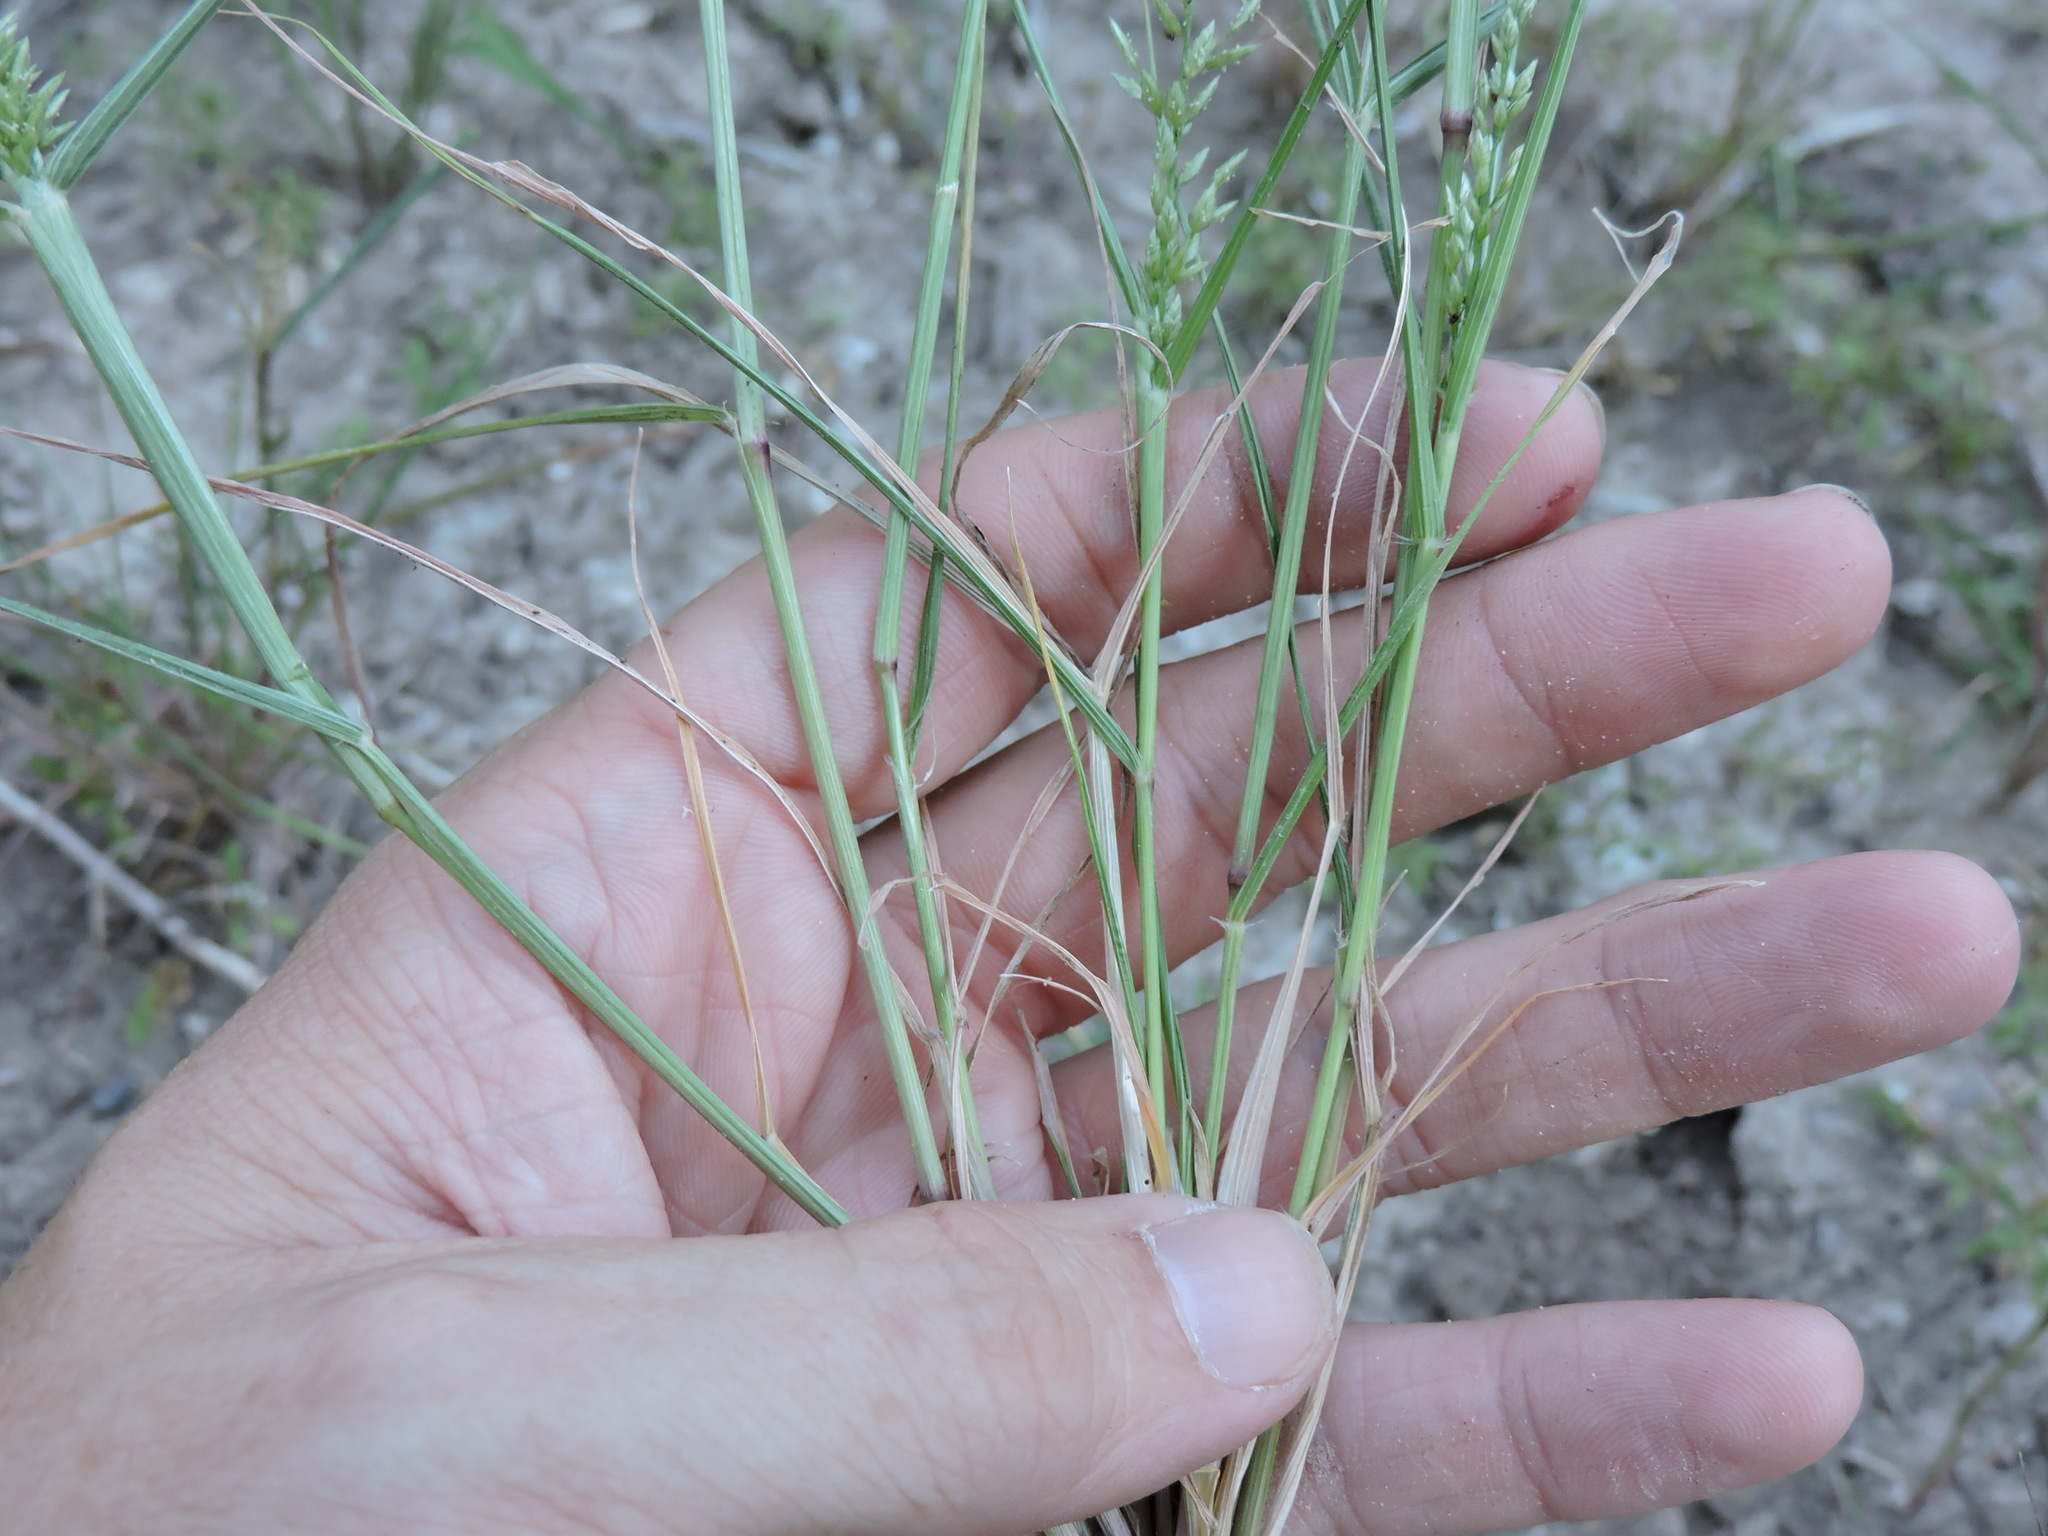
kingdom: Plantae
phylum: Tracheophyta
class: Liliopsida
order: Poales
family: Poaceae
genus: Eragrostis
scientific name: Eragrostis cilianensis
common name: Stinkgrass
